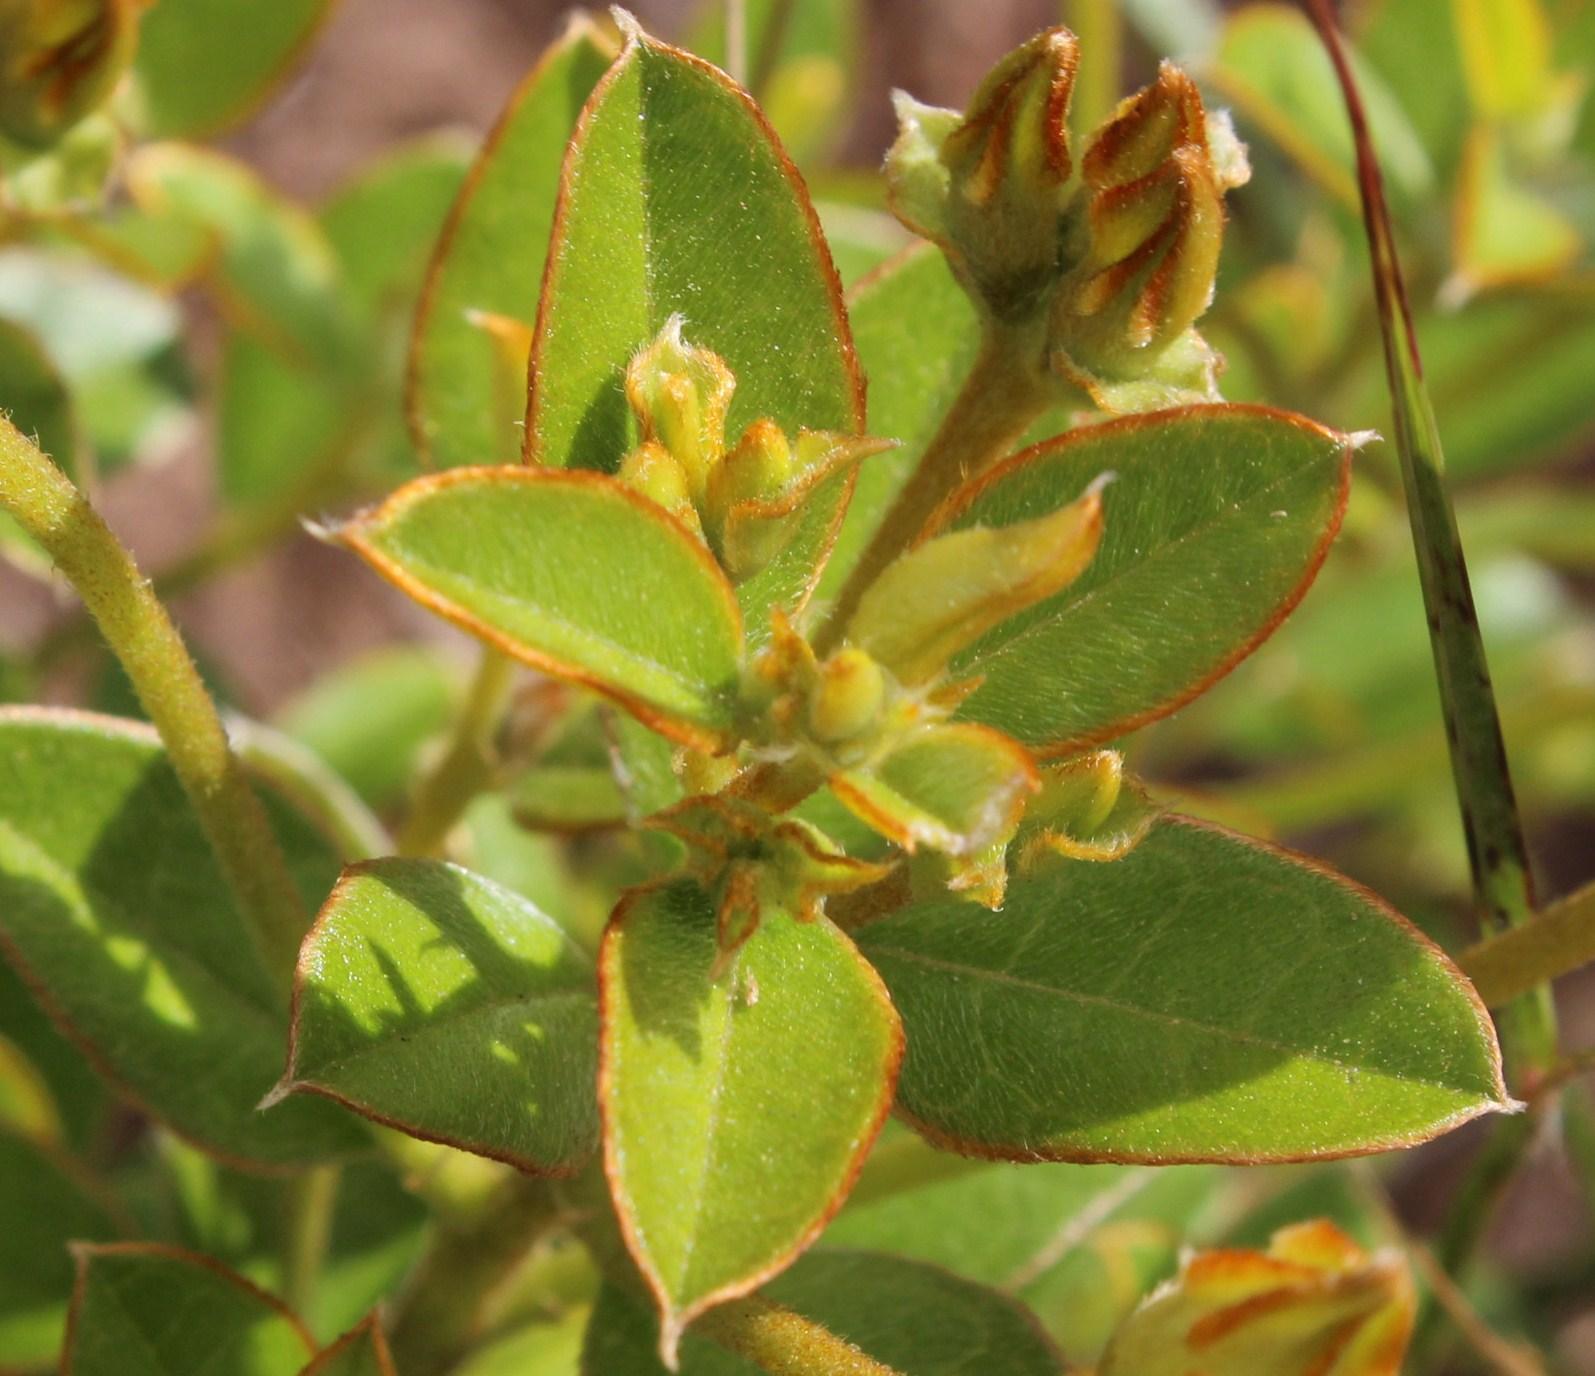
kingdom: Plantae
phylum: Tracheophyta
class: Magnoliopsida
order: Fabales
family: Fabaceae
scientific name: Fabaceae
